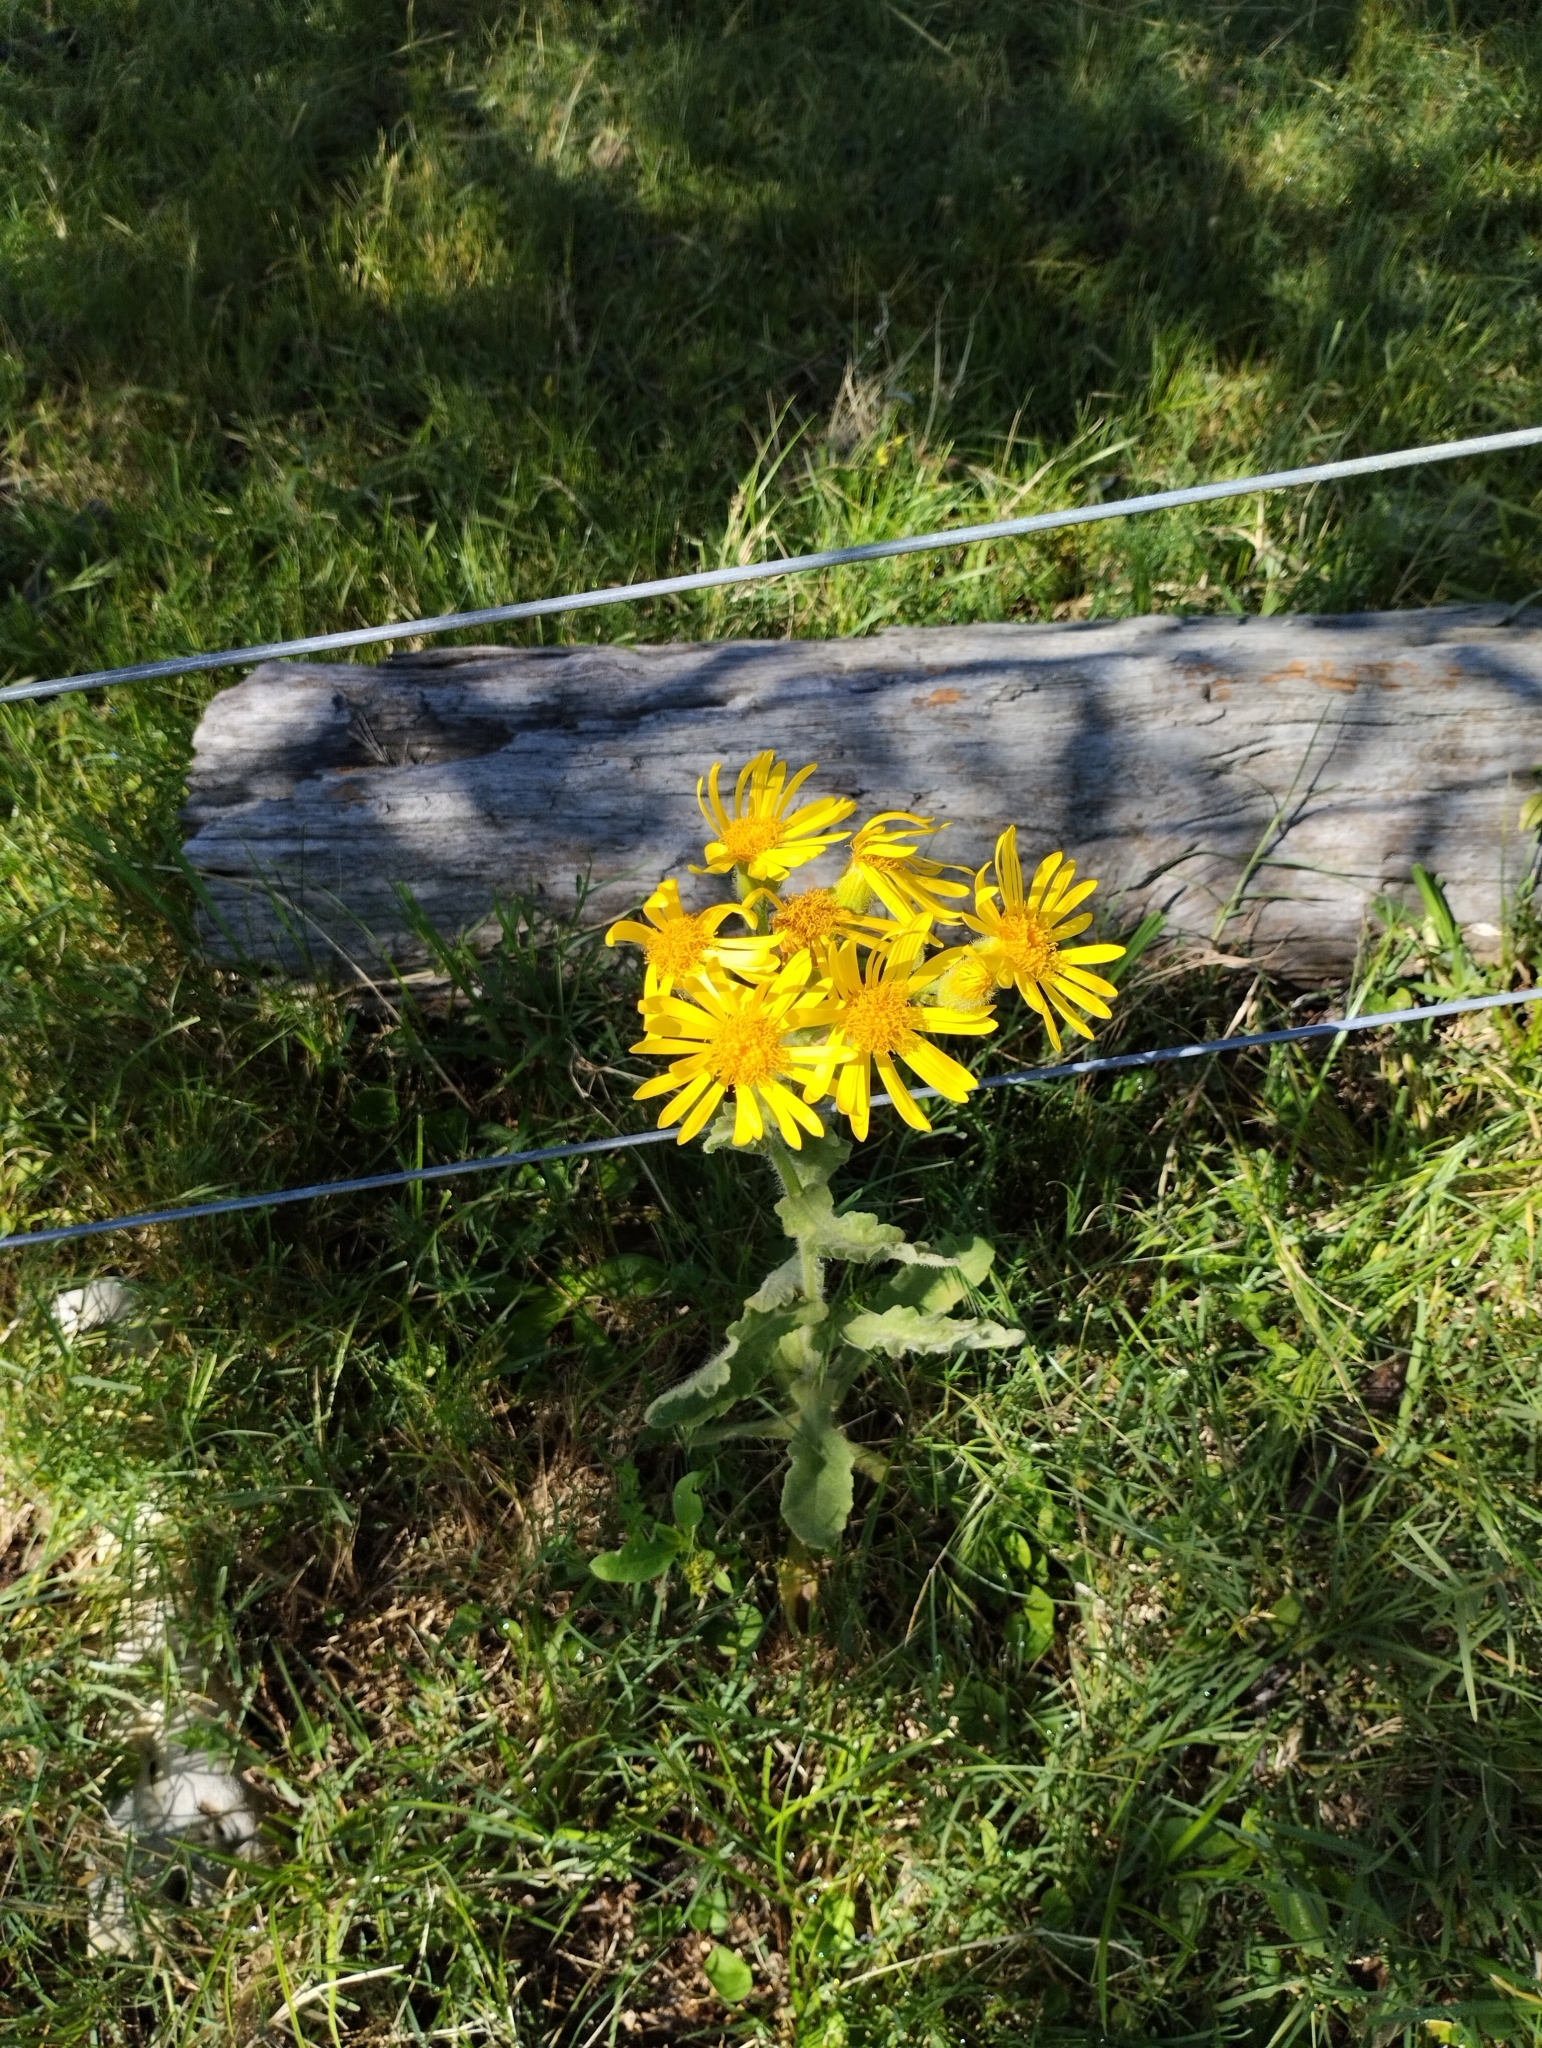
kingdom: Plantae
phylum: Tracheophyta
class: Magnoliopsida
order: Asterales
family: Asteraceae
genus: Senecio
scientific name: Senecio selloi
